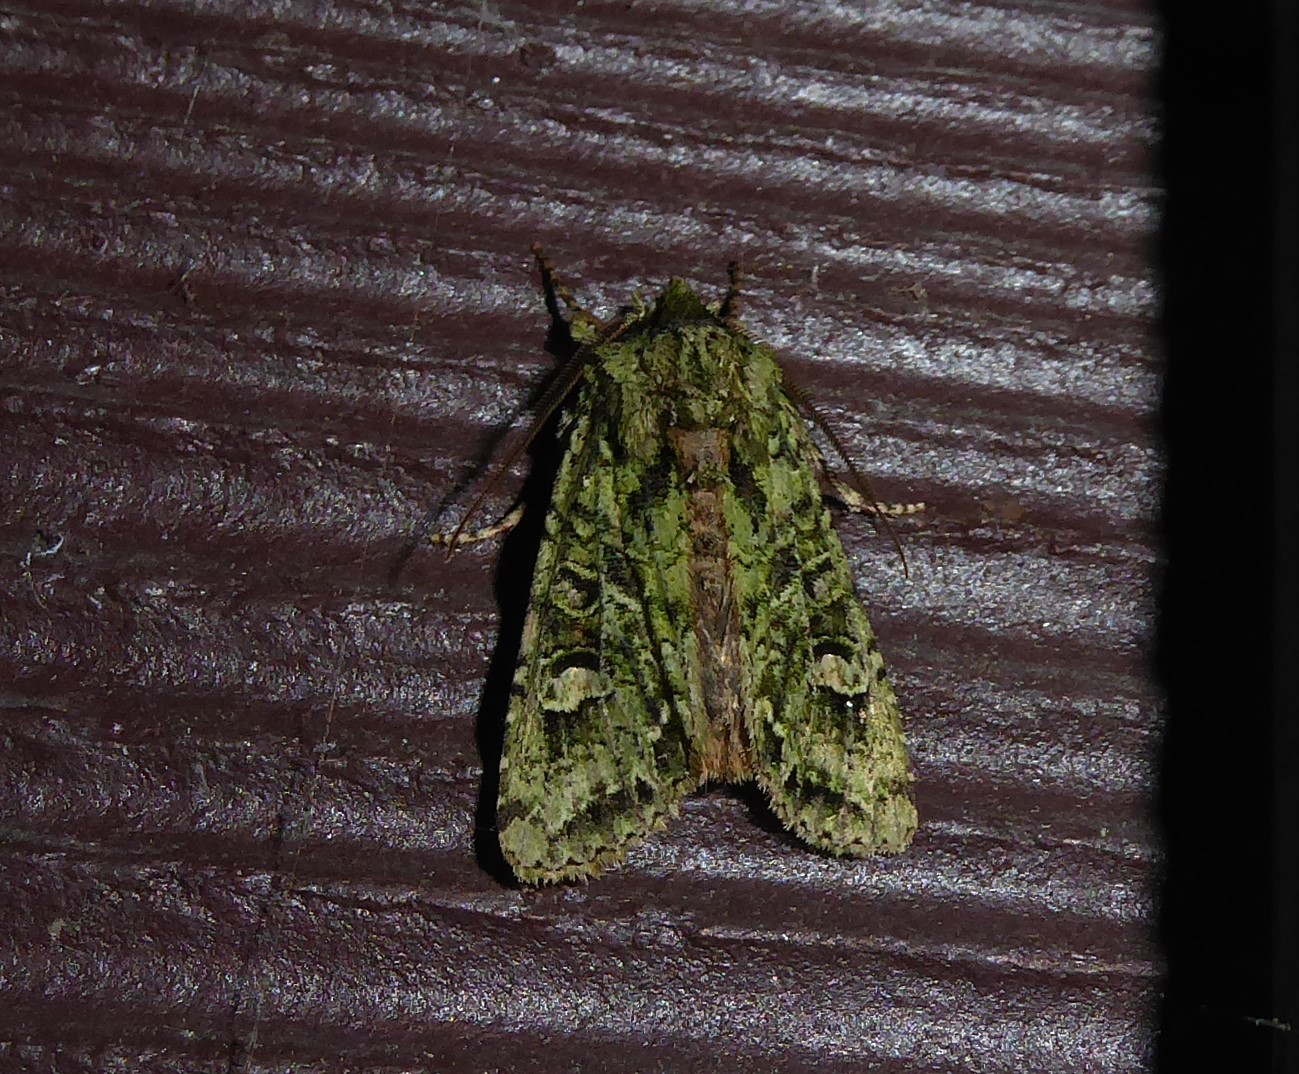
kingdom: Animalia
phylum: Arthropoda
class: Insecta
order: Lepidoptera
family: Noctuidae
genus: Ichneutica
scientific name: Ichneutica
